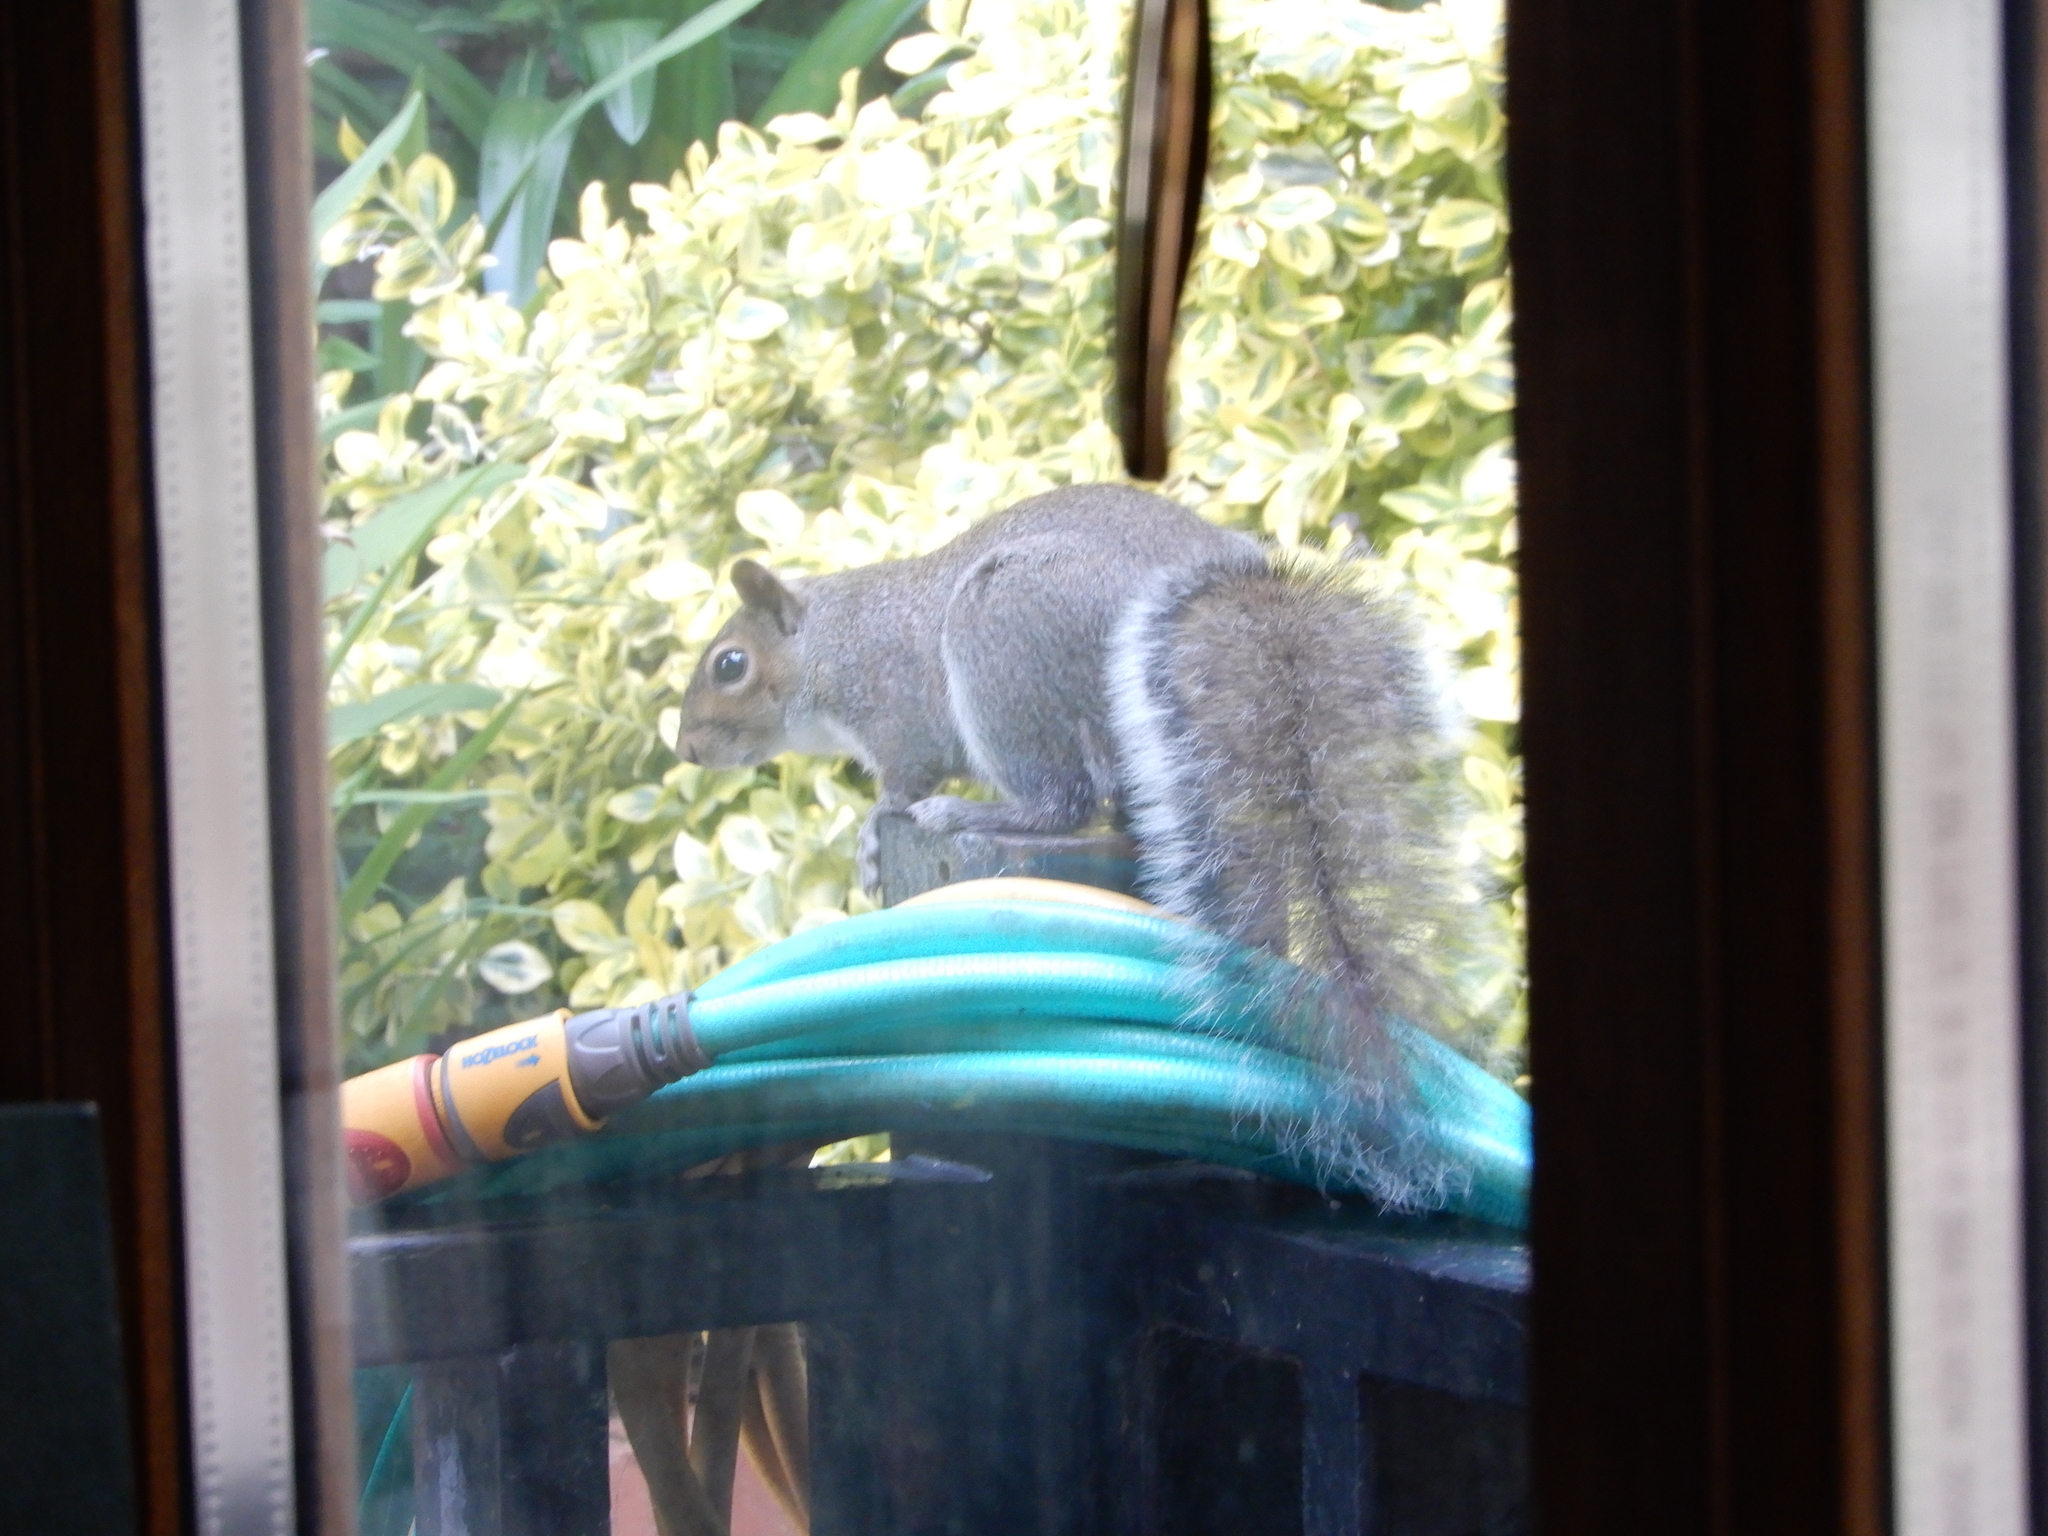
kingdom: Animalia
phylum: Chordata
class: Mammalia
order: Rodentia
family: Sciuridae
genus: Sciurus
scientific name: Sciurus carolinensis
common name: Eastern gray squirrel
